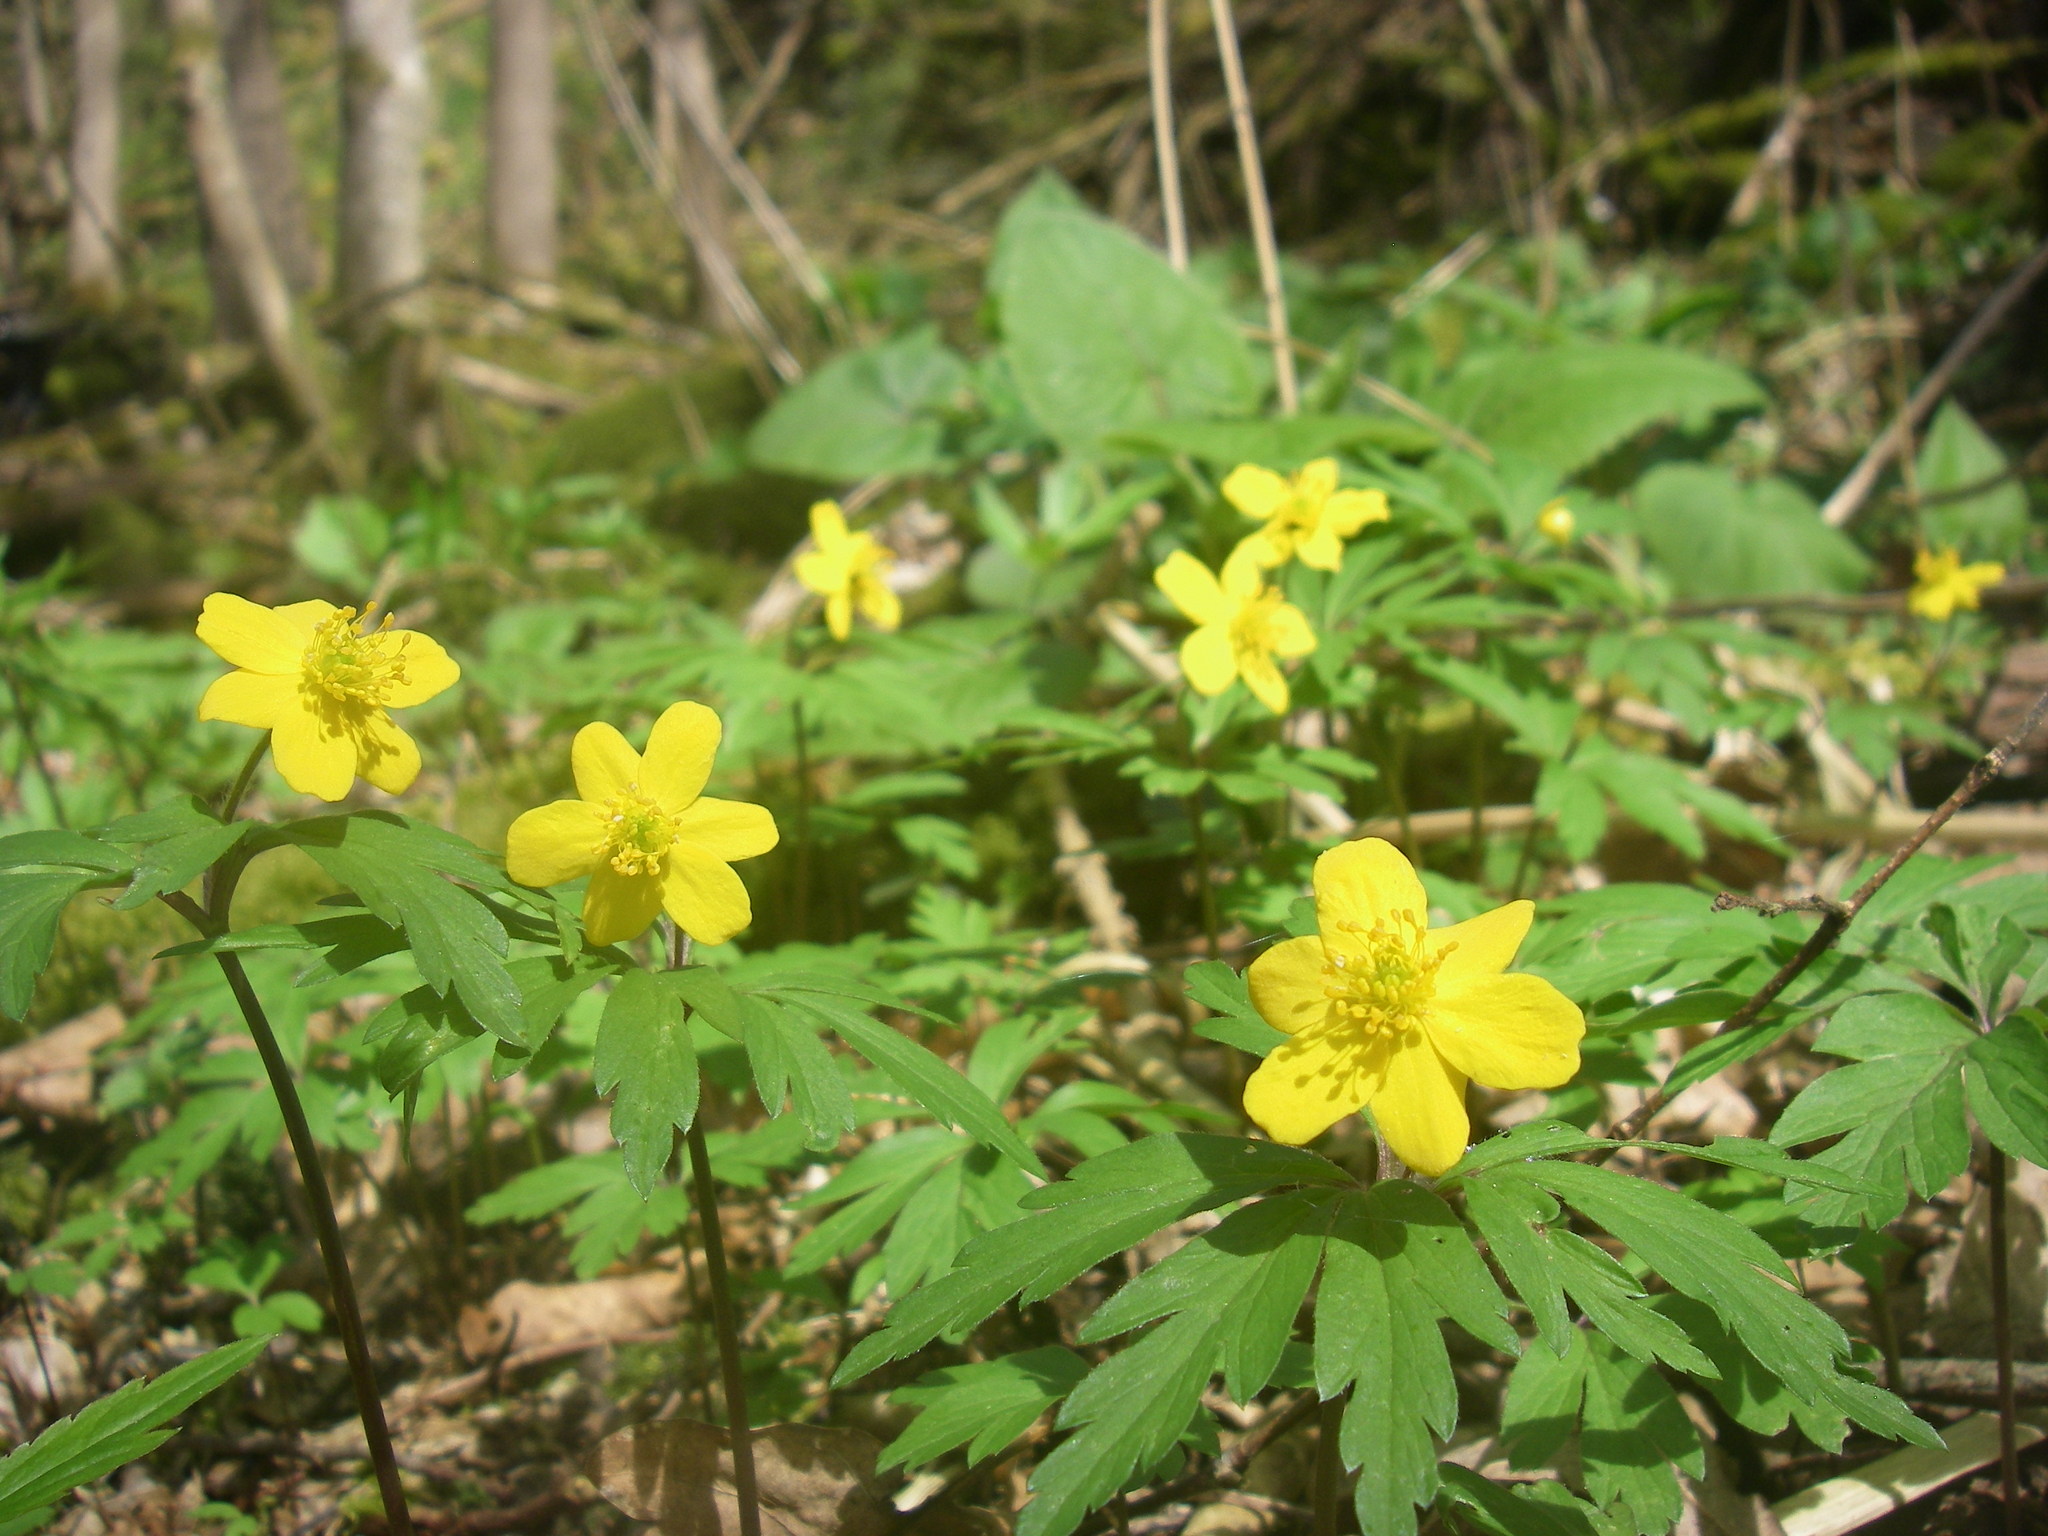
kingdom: Plantae
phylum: Tracheophyta
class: Magnoliopsida
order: Ranunculales
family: Ranunculaceae
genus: Anemone
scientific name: Anemone ranunculoides
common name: Yellow anemone
